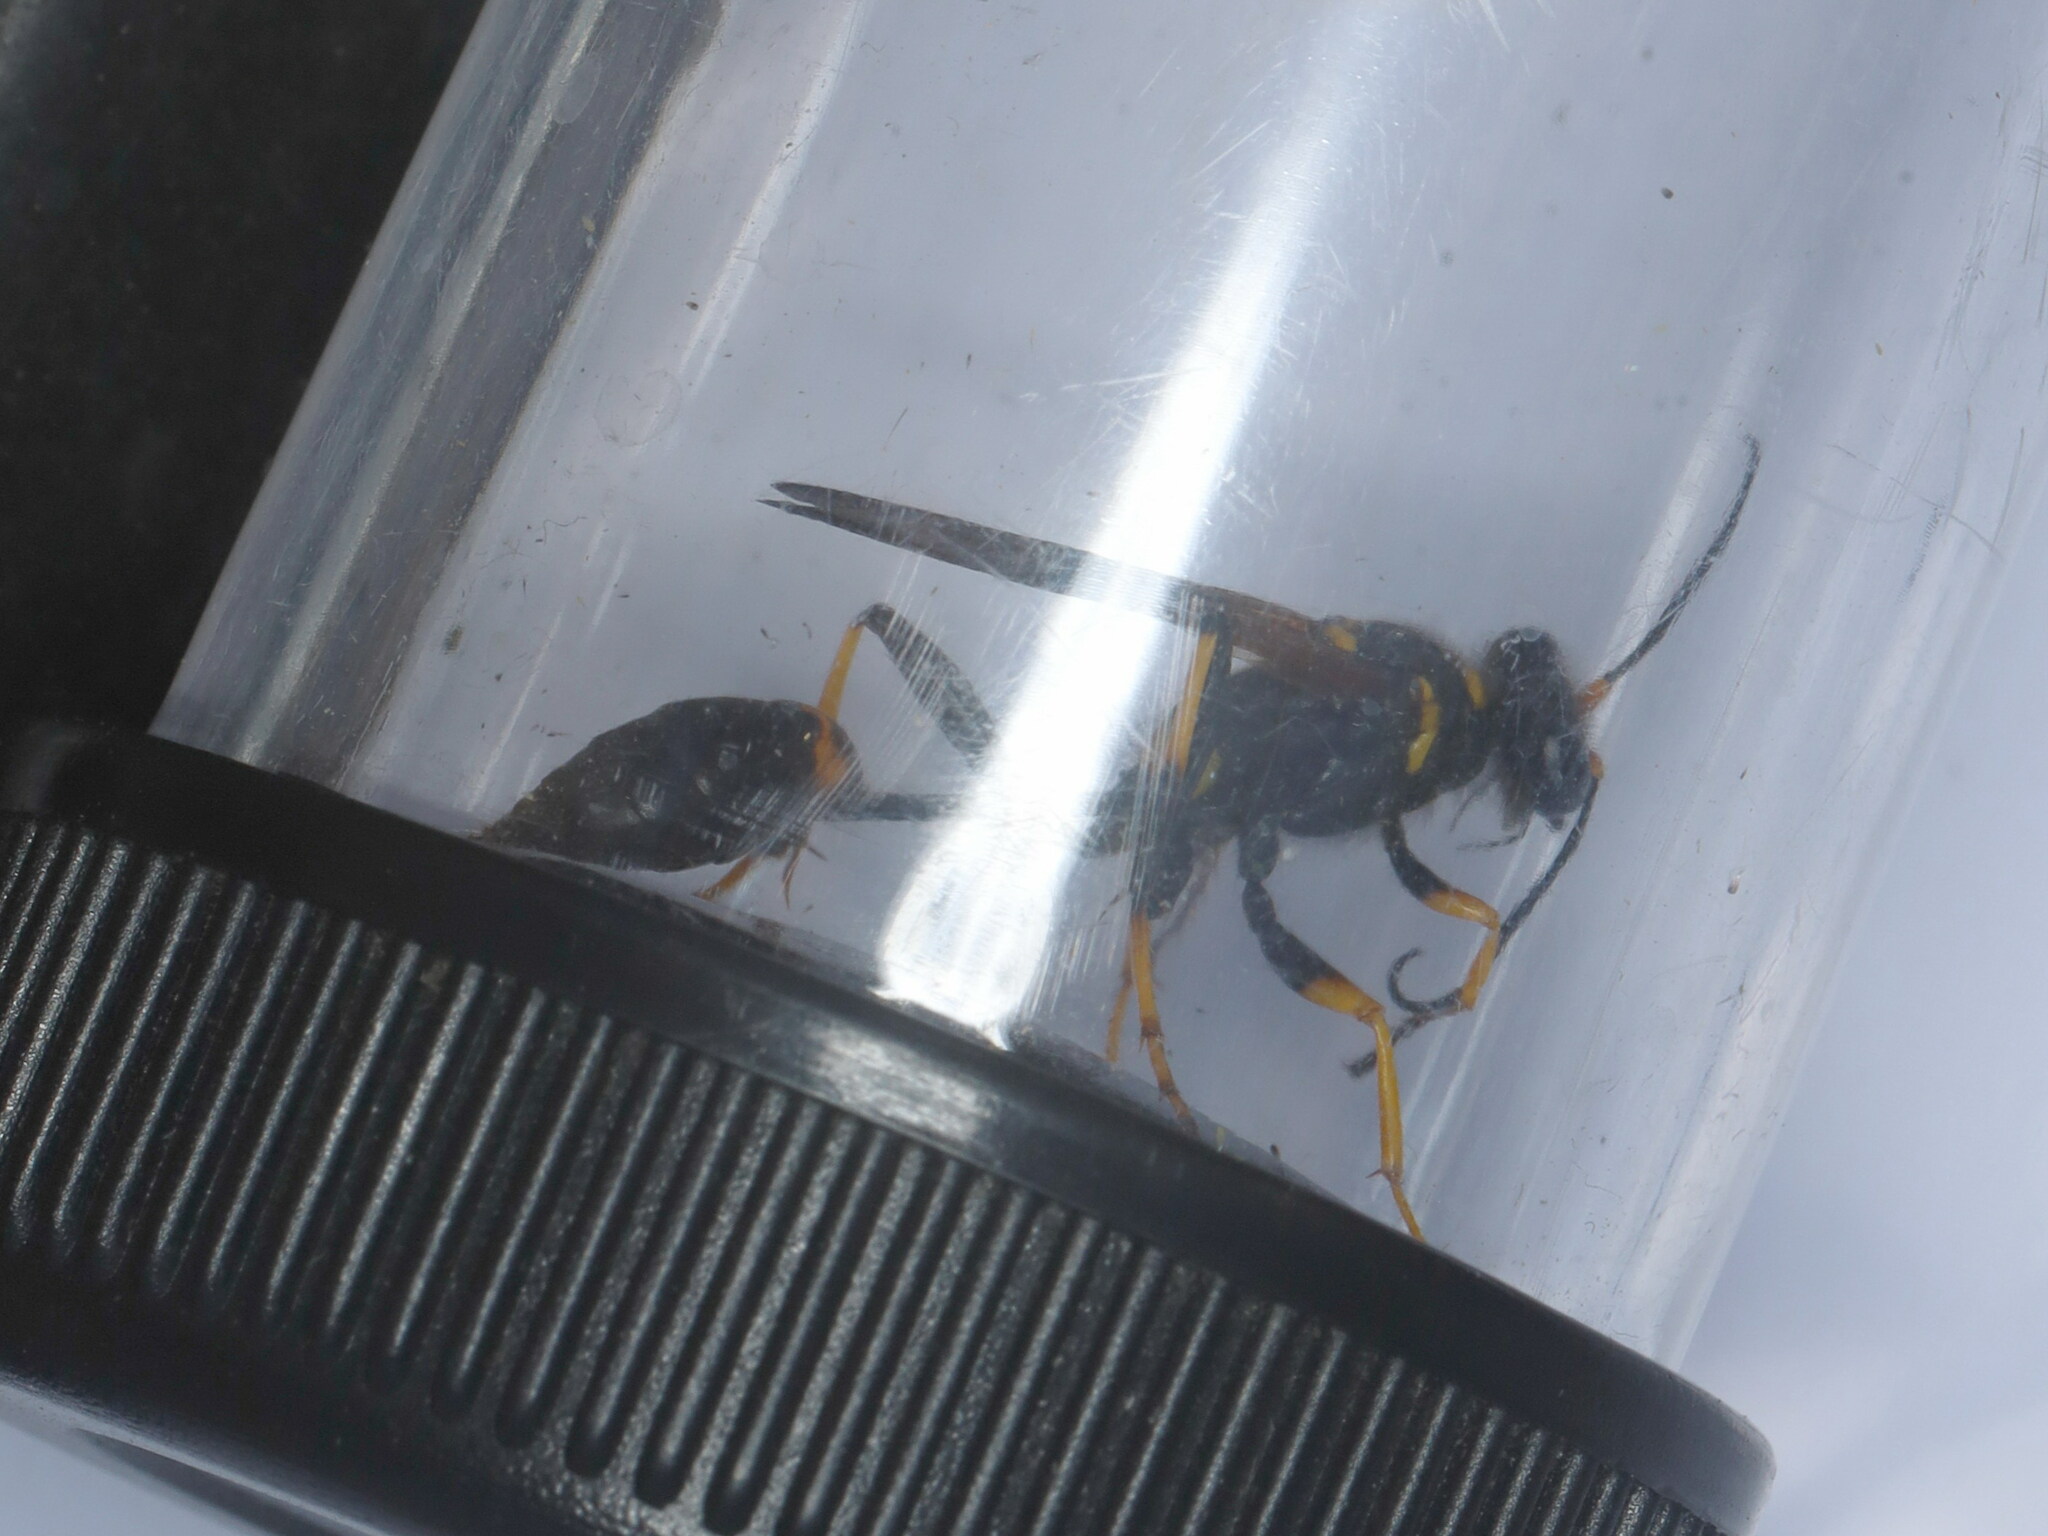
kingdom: Animalia
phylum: Arthropoda
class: Insecta
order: Hymenoptera
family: Sphecidae
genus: Sceliphron
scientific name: Sceliphron caementarium
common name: Mud dauber
